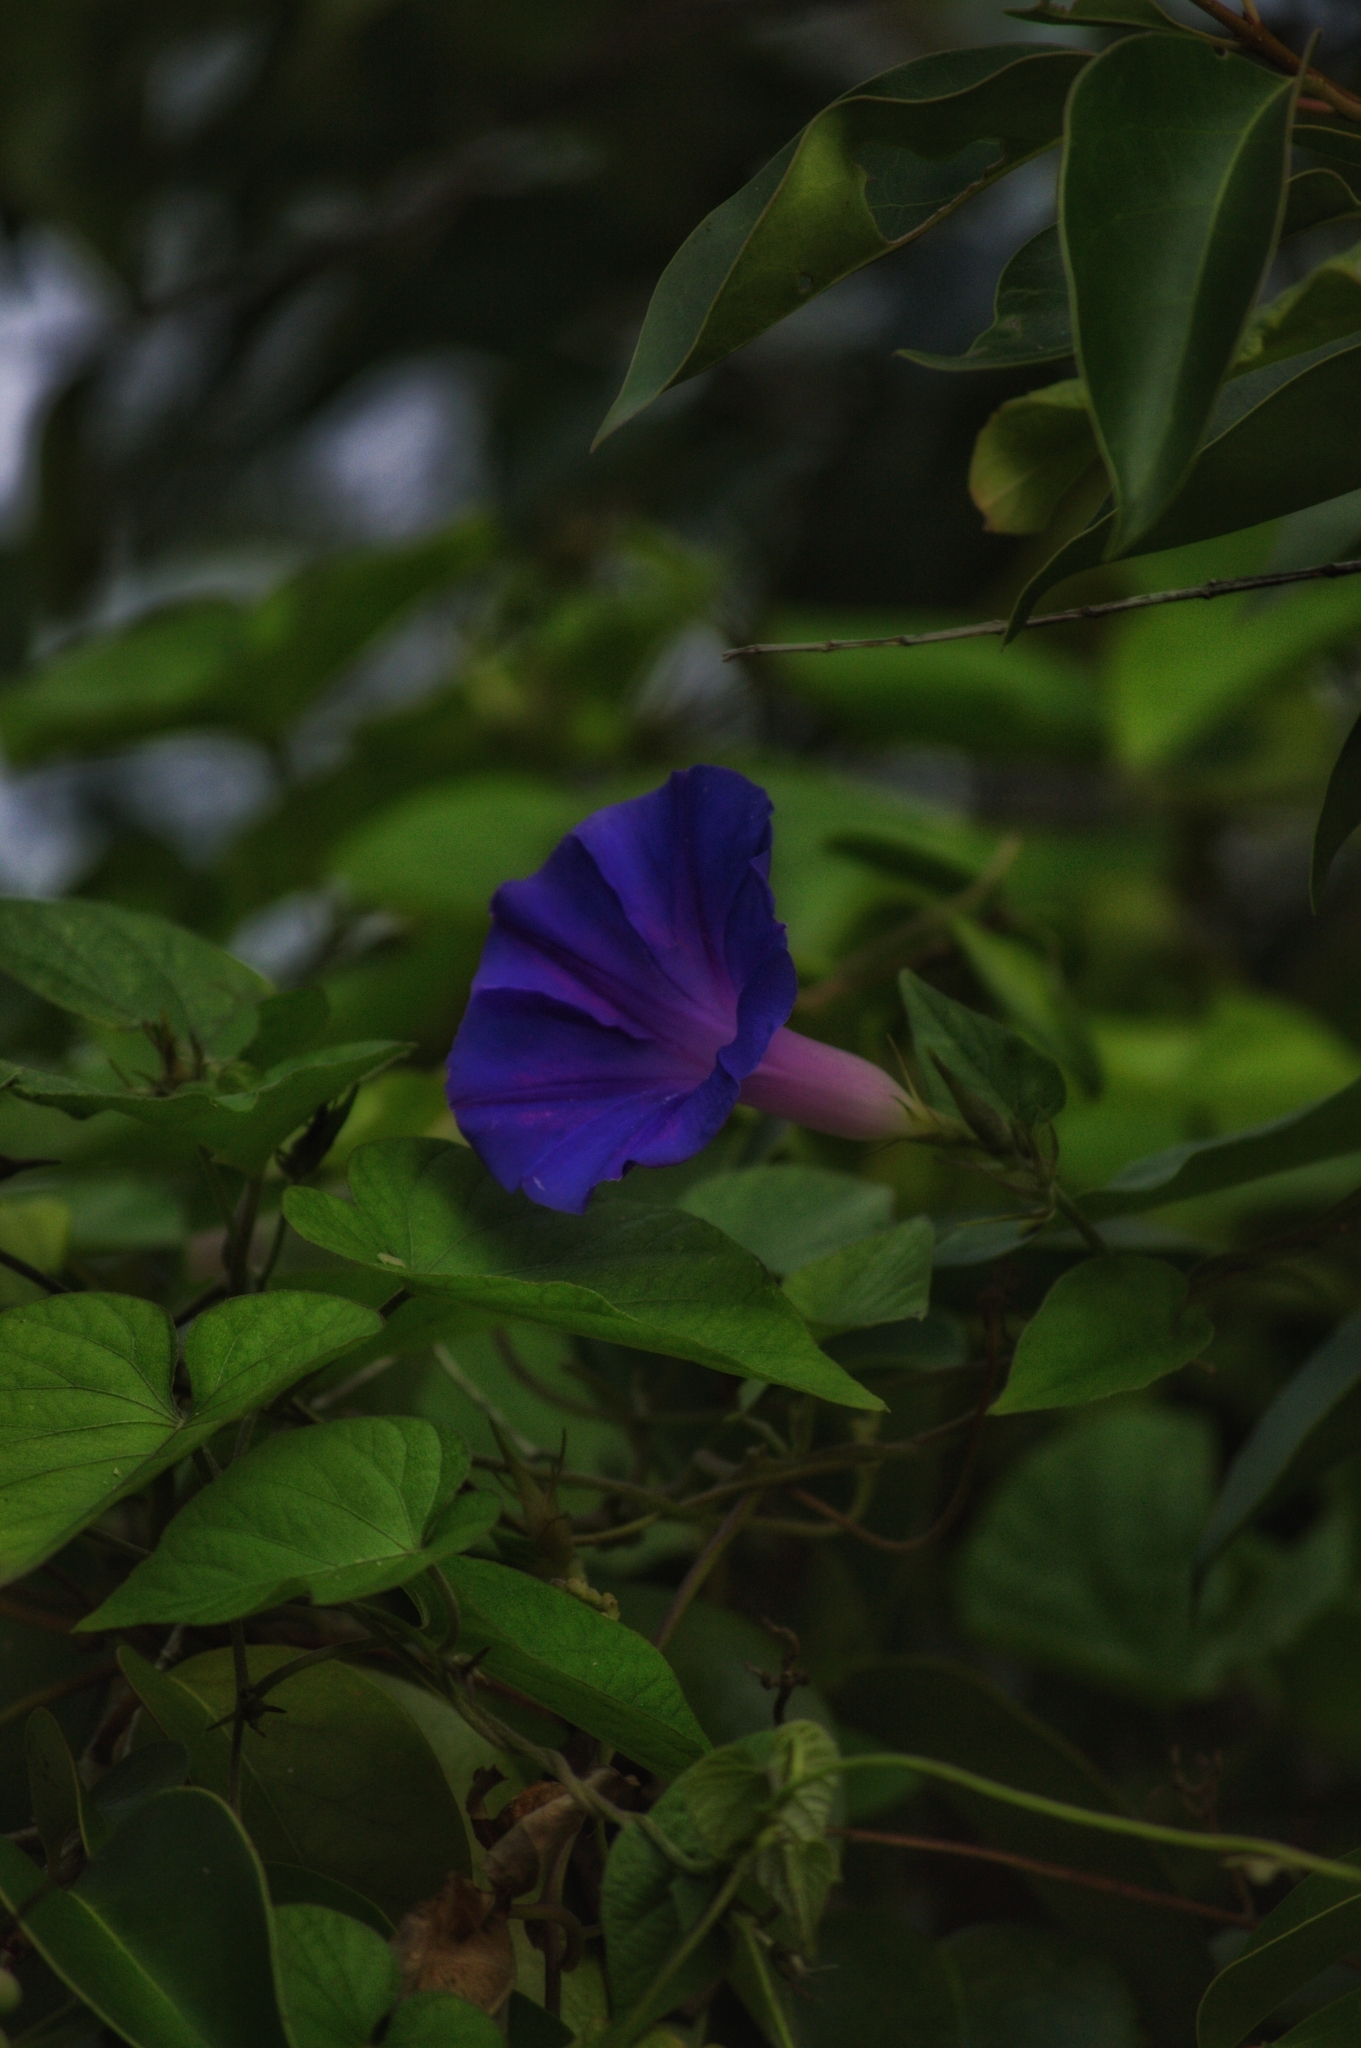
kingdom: Plantae
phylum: Tracheophyta
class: Magnoliopsida
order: Solanales
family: Convolvulaceae
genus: Ipomoea
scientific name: Ipomoea indica
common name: Blue dawnflower
